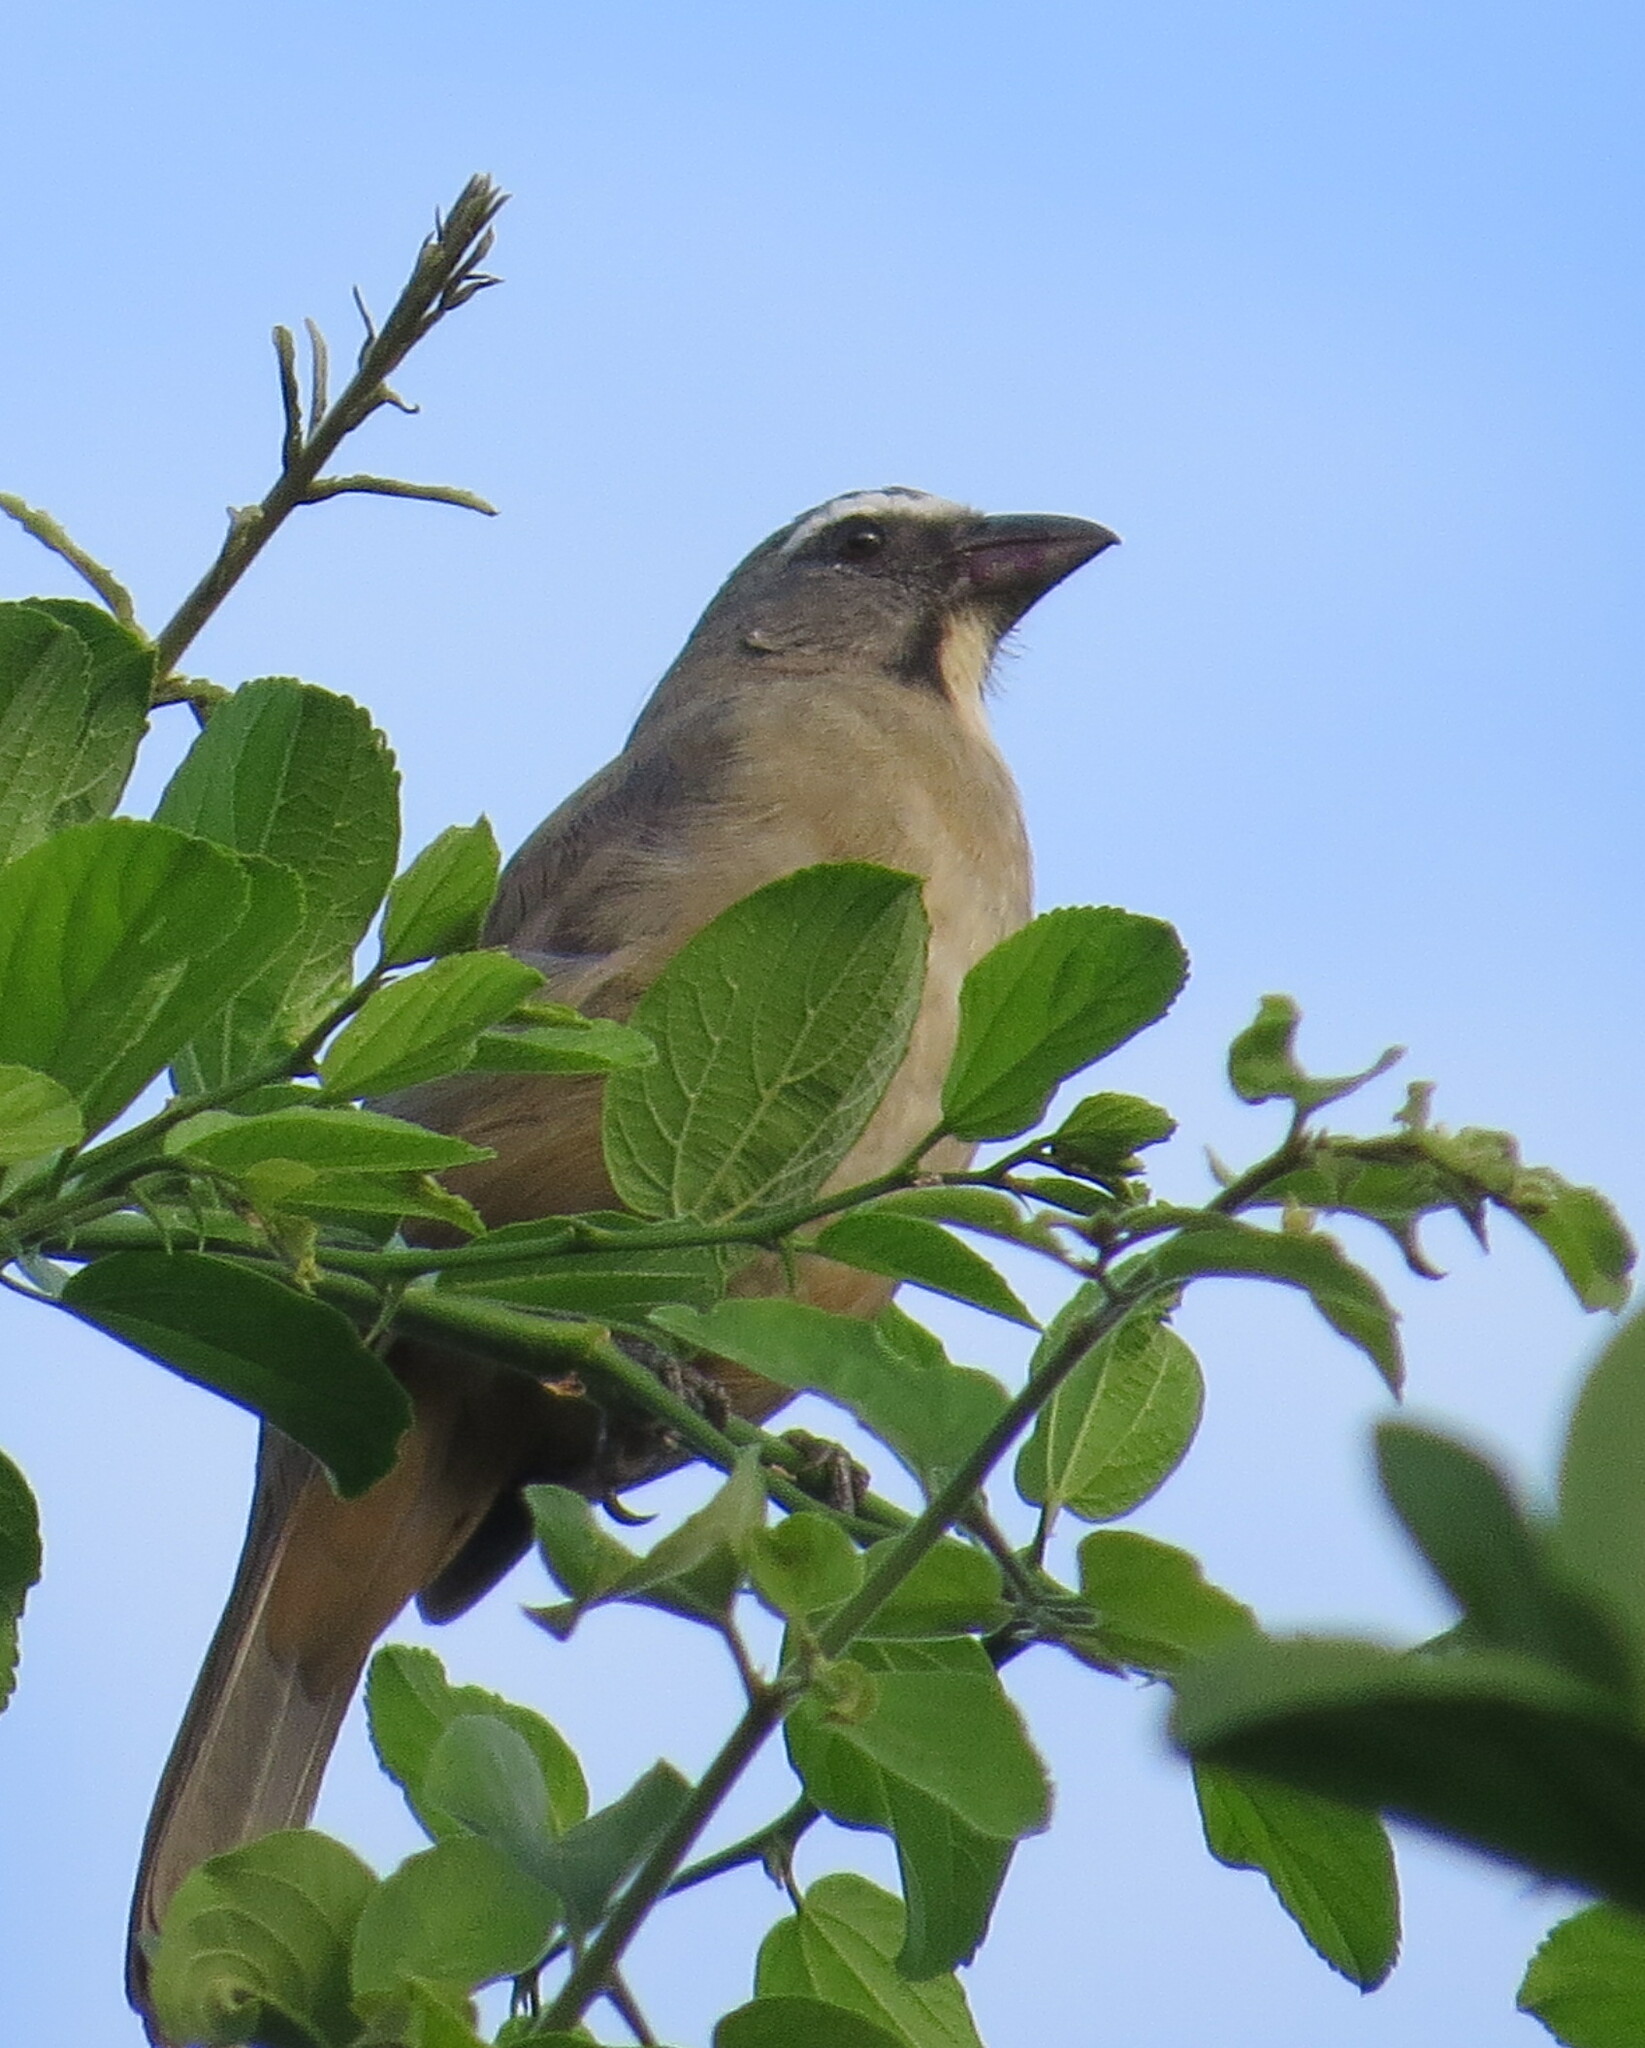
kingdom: Animalia
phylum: Chordata
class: Aves
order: Passeriformes
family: Thraupidae
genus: Saltator
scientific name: Saltator grandis
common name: Cinnamon-bellied saltator
